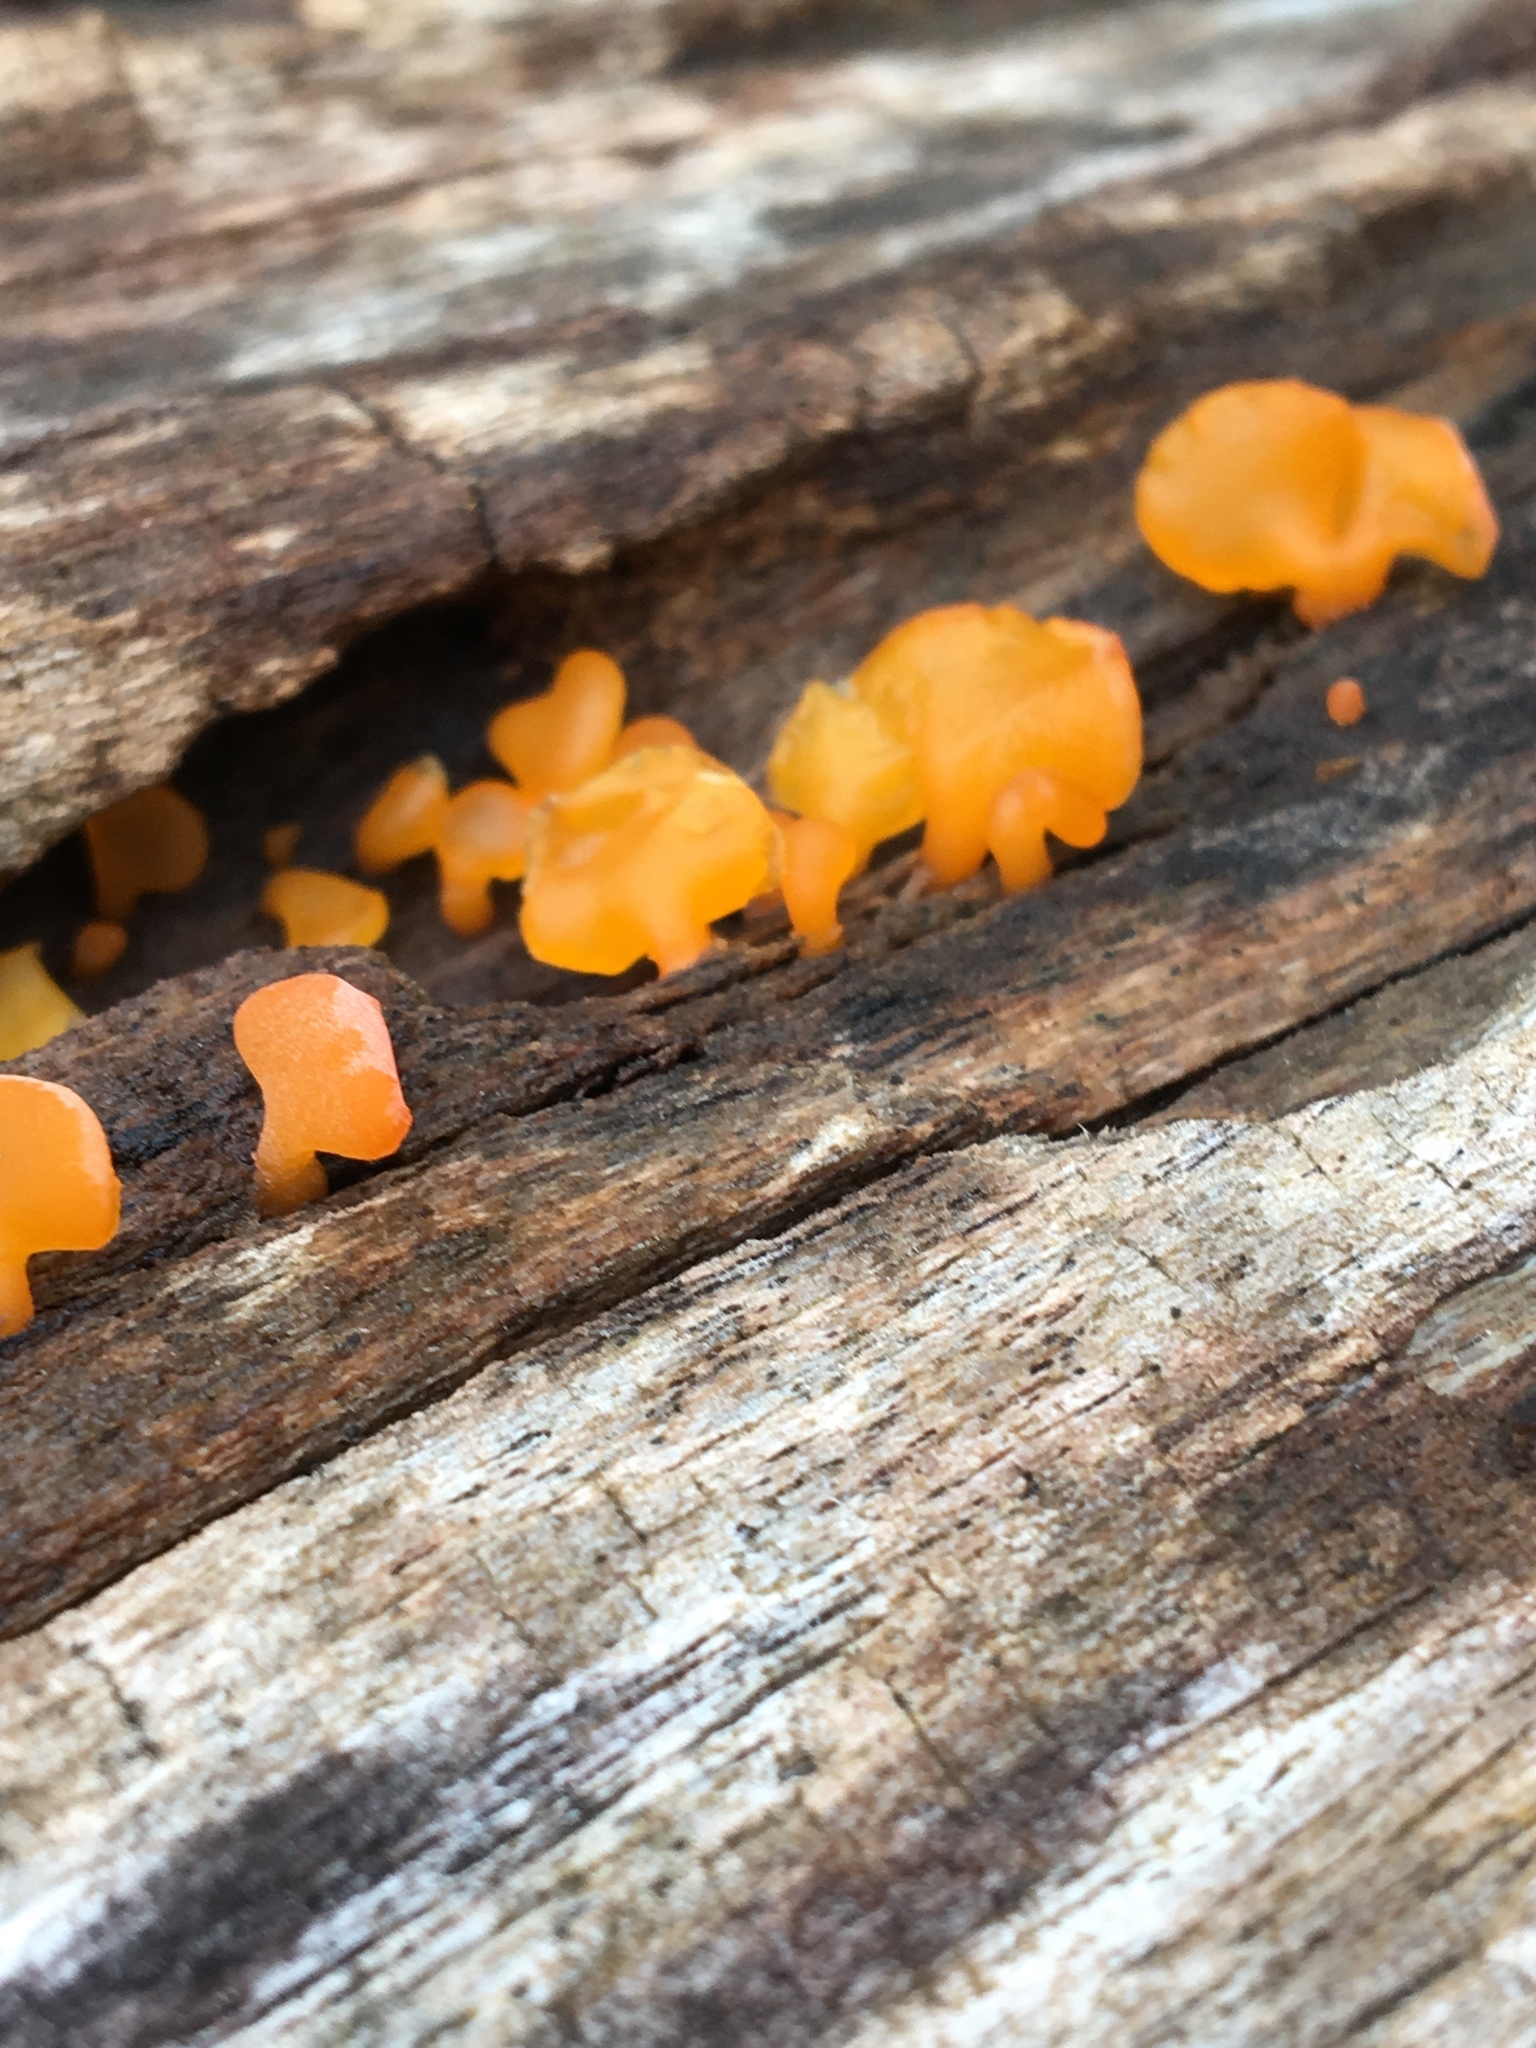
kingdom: Fungi
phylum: Basidiomycota
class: Dacrymycetes
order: Dacrymycetales
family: Dacrymycetaceae
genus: Heterotextus
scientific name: Heterotextus peziziformis
